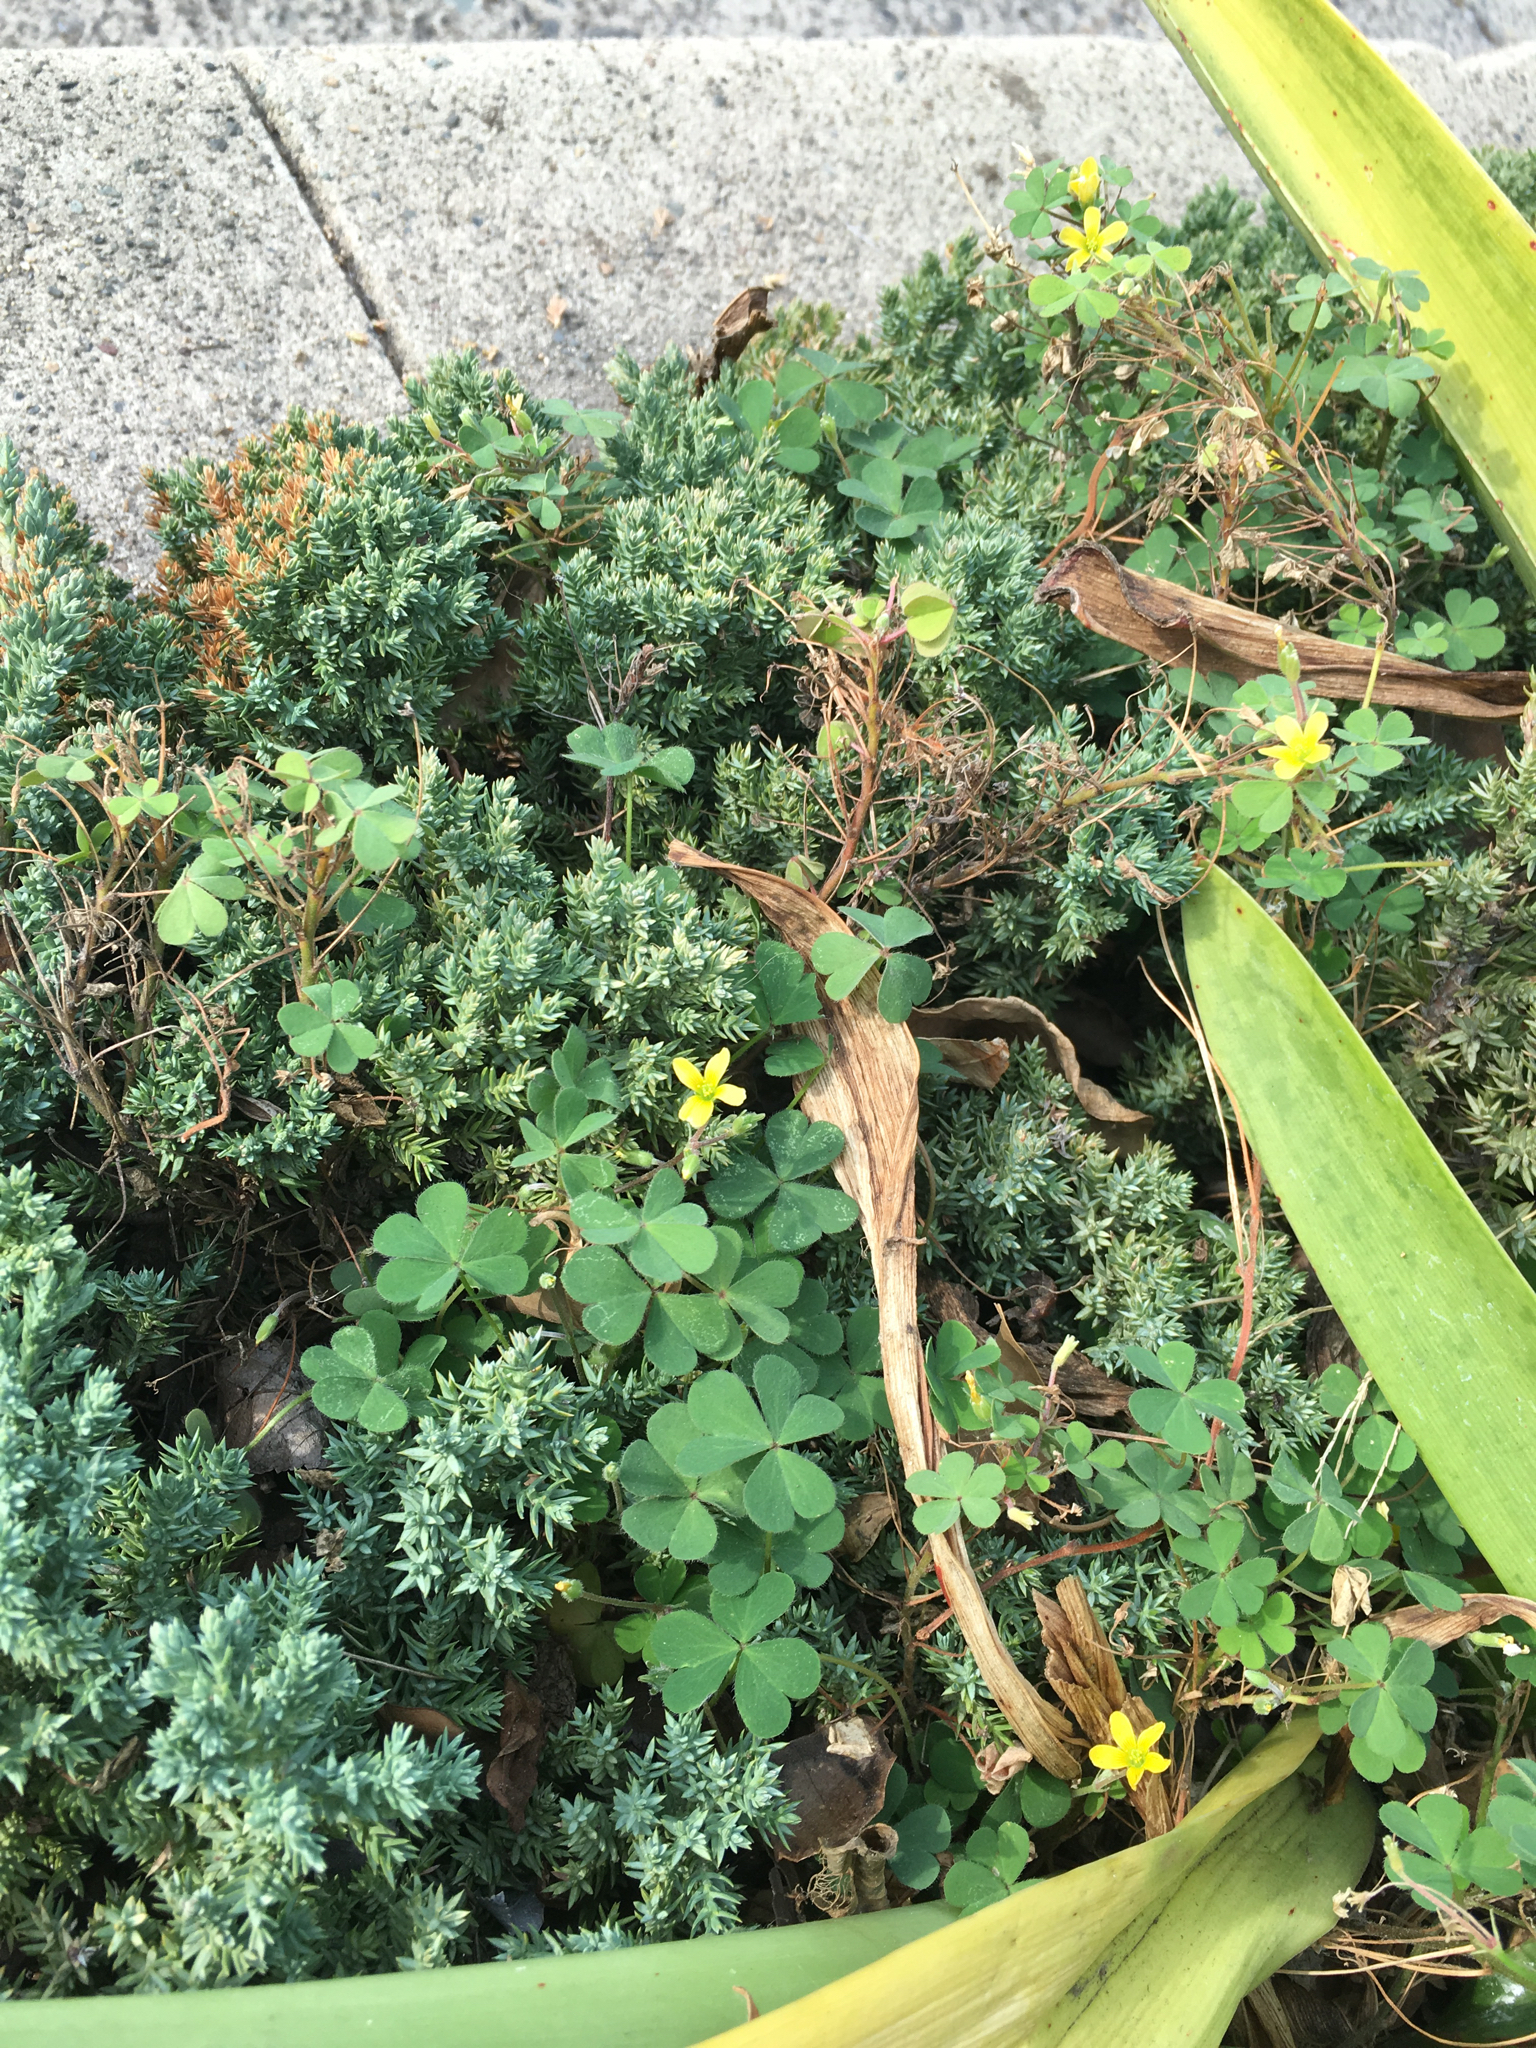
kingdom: Plantae
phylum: Tracheophyta
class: Magnoliopsida
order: Oxalidales
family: Oxalidaceae
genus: Oxalis
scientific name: Oxalis corniculata
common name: Procumbent yellow-sorrel
